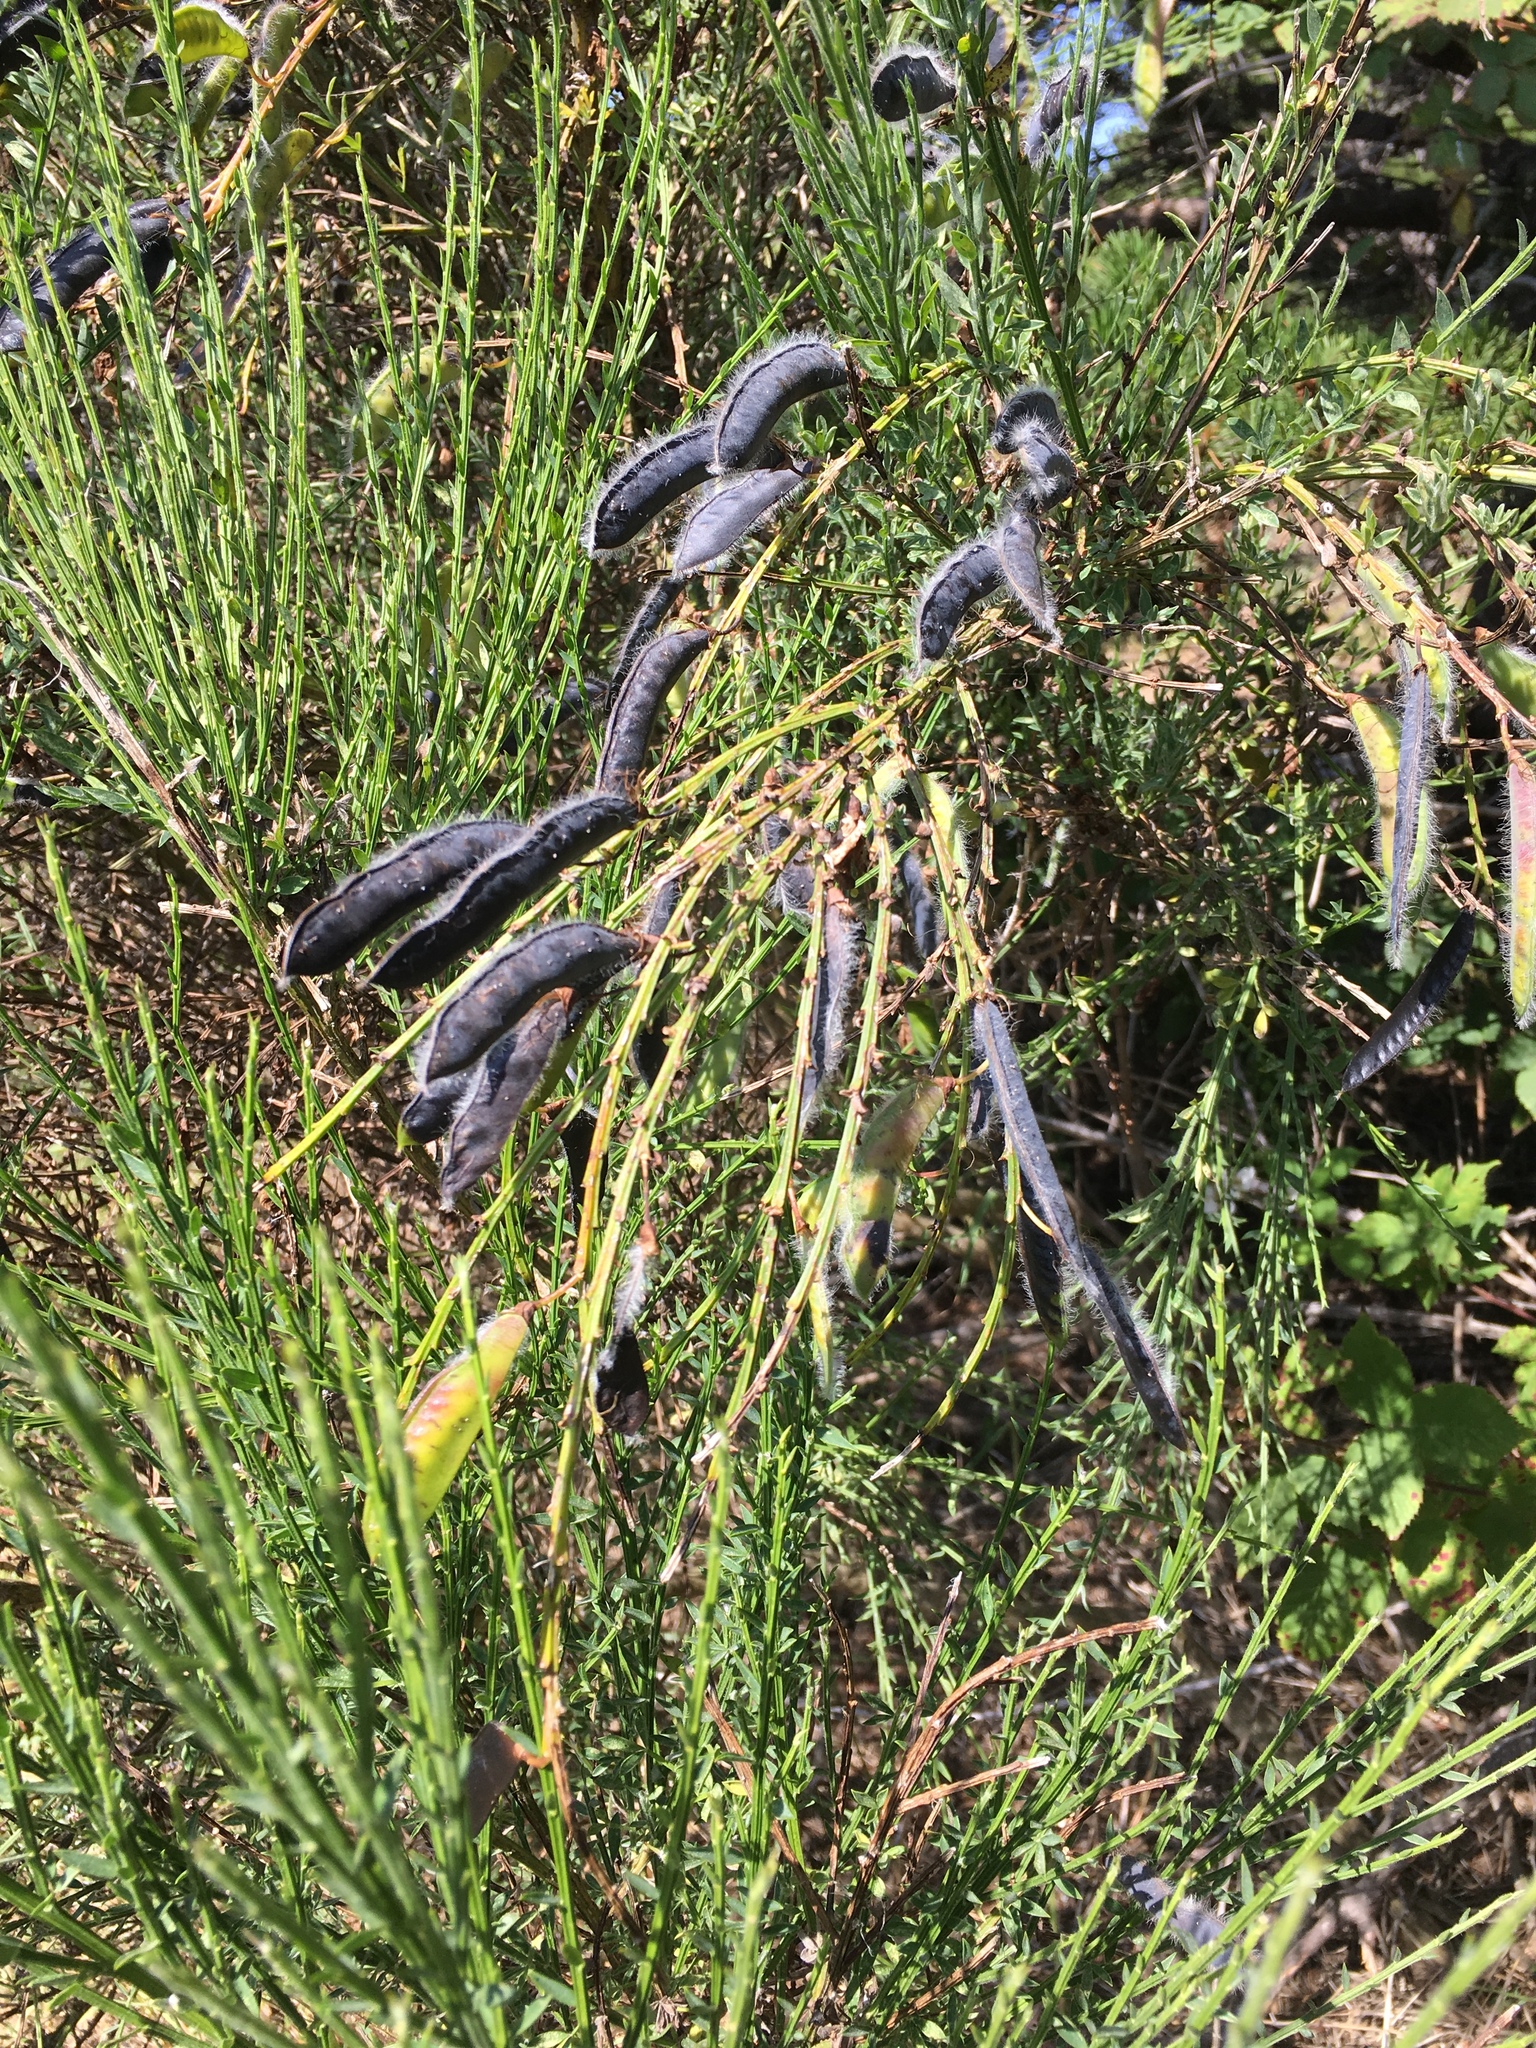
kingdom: Plantae
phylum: Tracheophyta
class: Magnoliopsida
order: Fabales
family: Fabaceae
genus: Cytisus
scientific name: Cytisus scoparius
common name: Scotch broom
